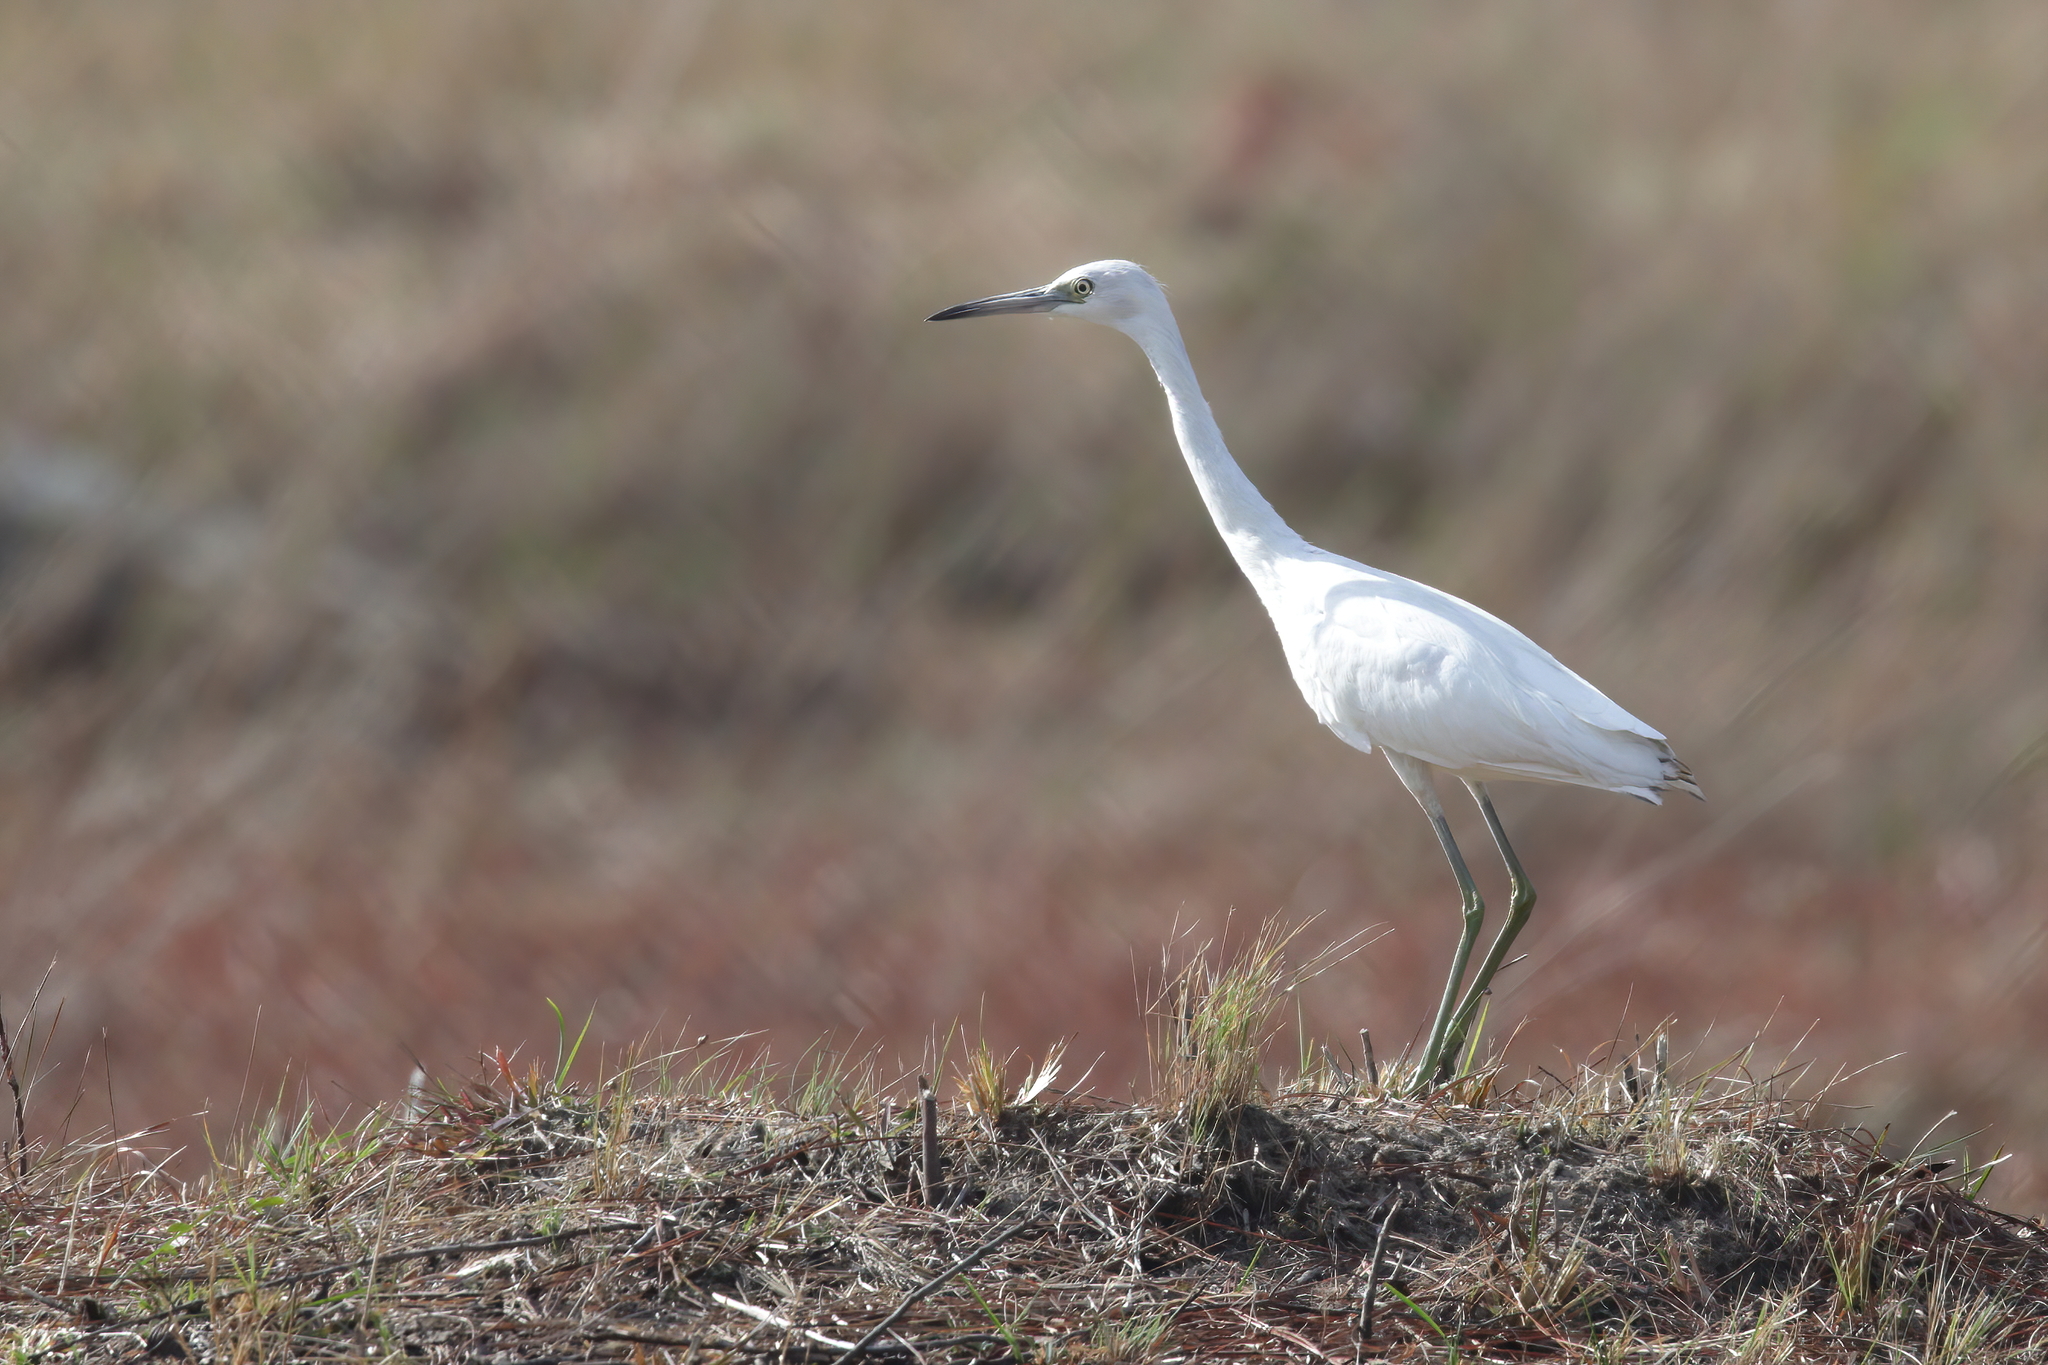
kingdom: Animalia
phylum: Chordata
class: Aves
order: Pelecaniformes
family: Ardeidae
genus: Egretta
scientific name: Egretta caerulea
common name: Little blue heron
